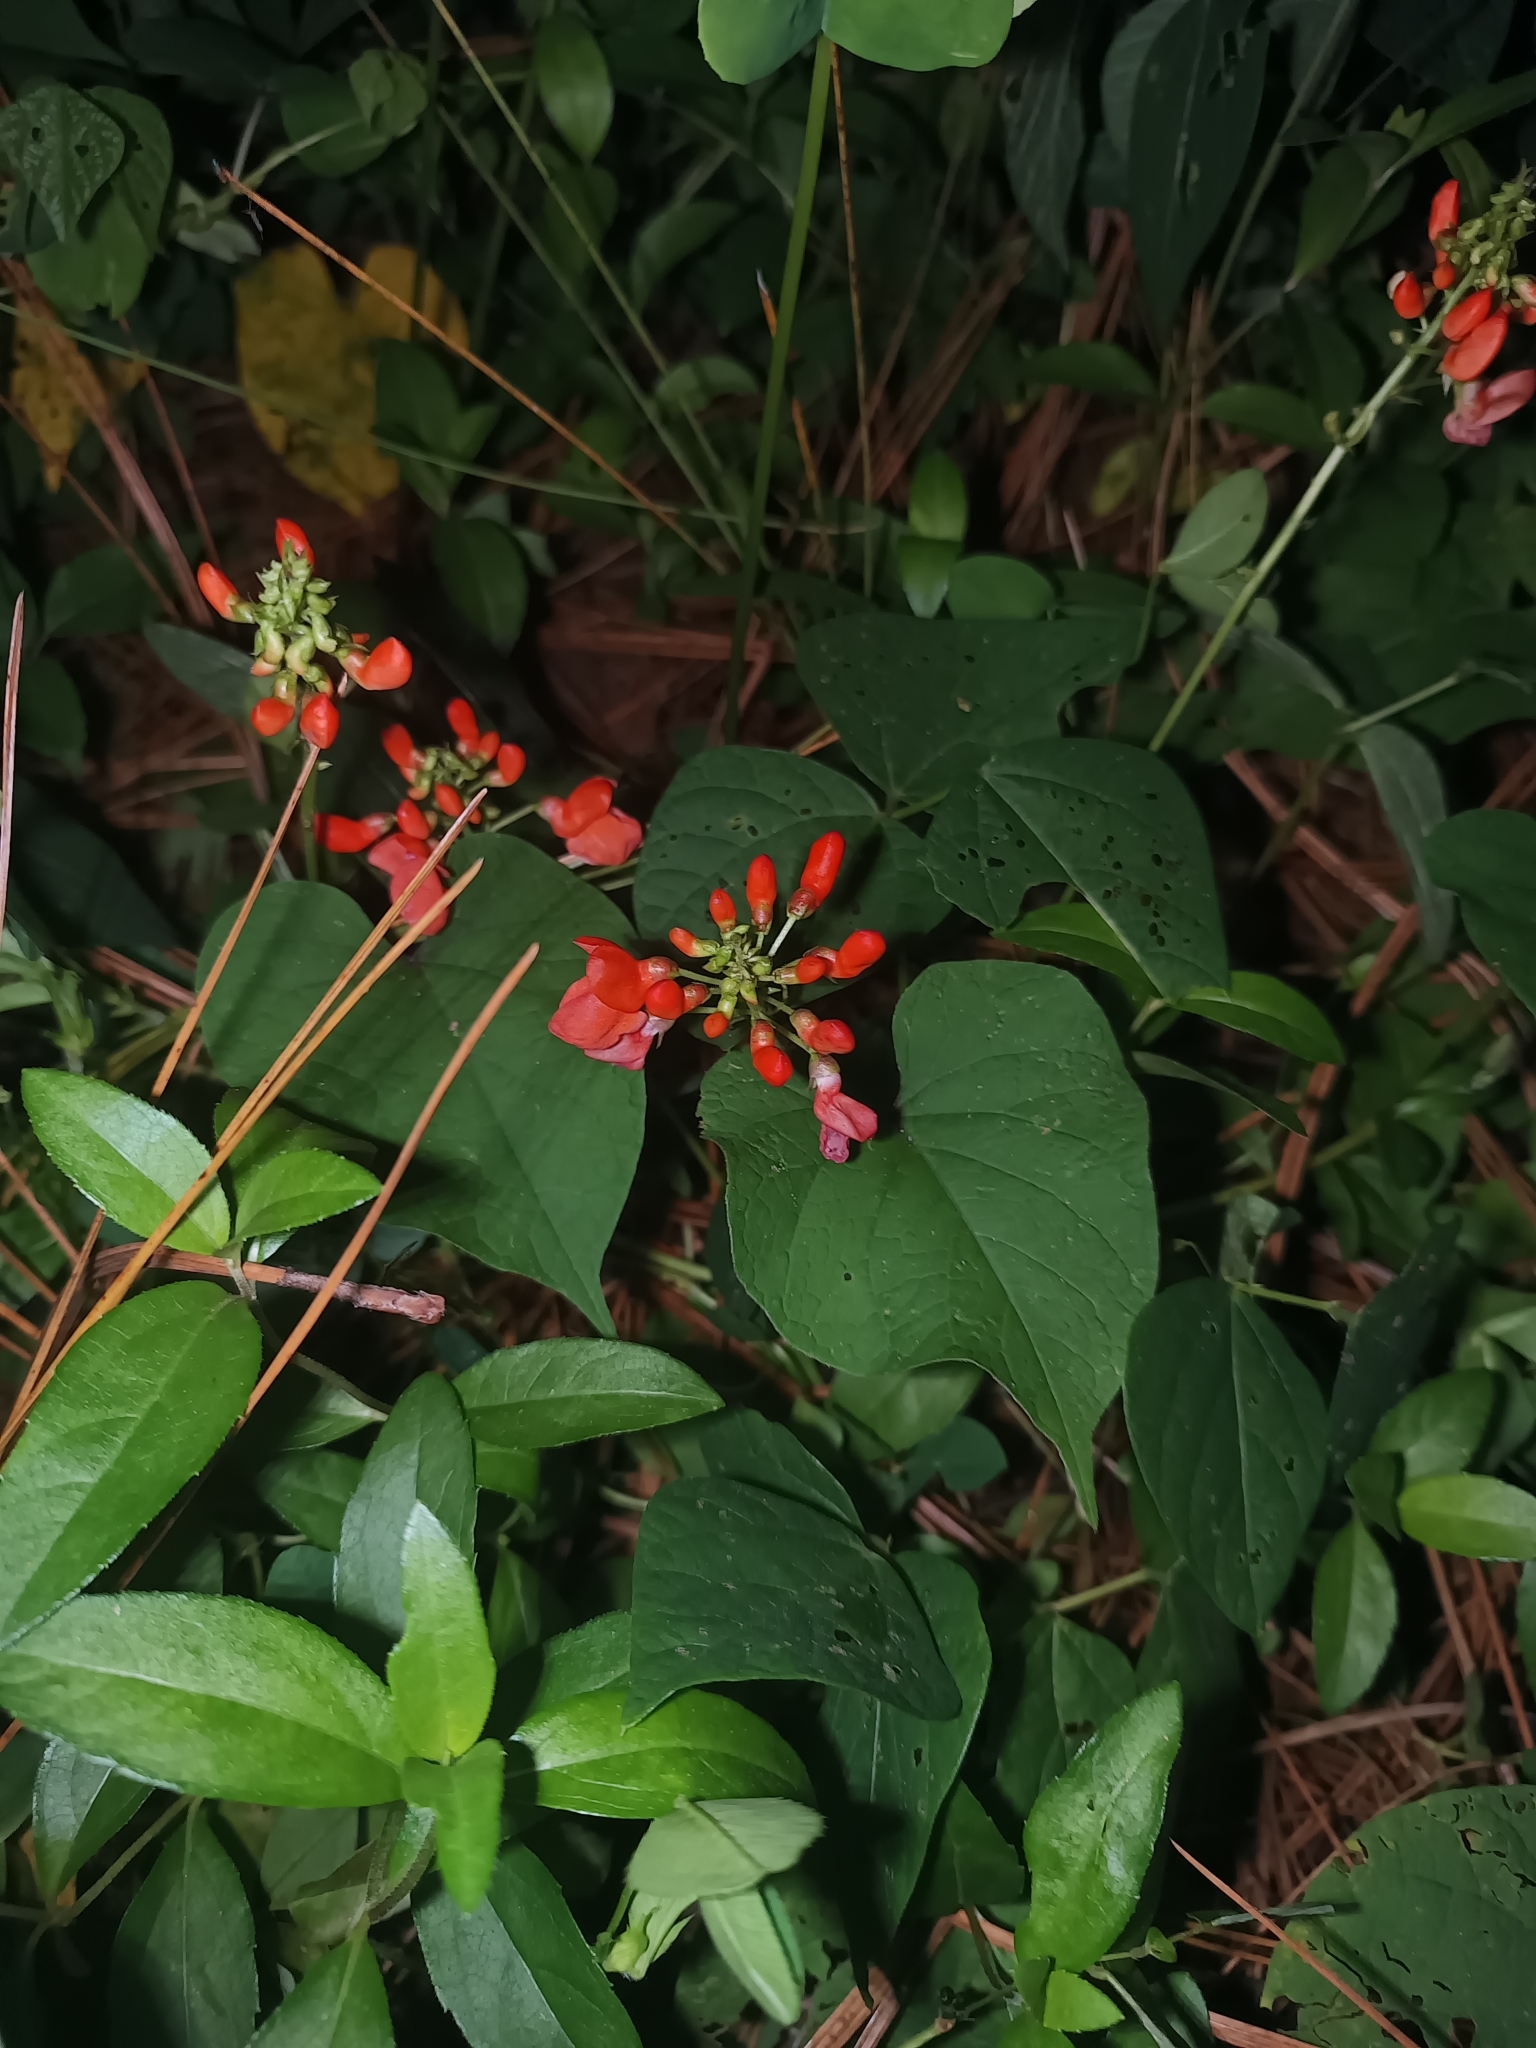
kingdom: Plantae
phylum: Tracheophyta
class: Magnoliopsida
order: Fabales
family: Fabaceae
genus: Phaseolus
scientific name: Phaseolus coccineus
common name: Runner bean
